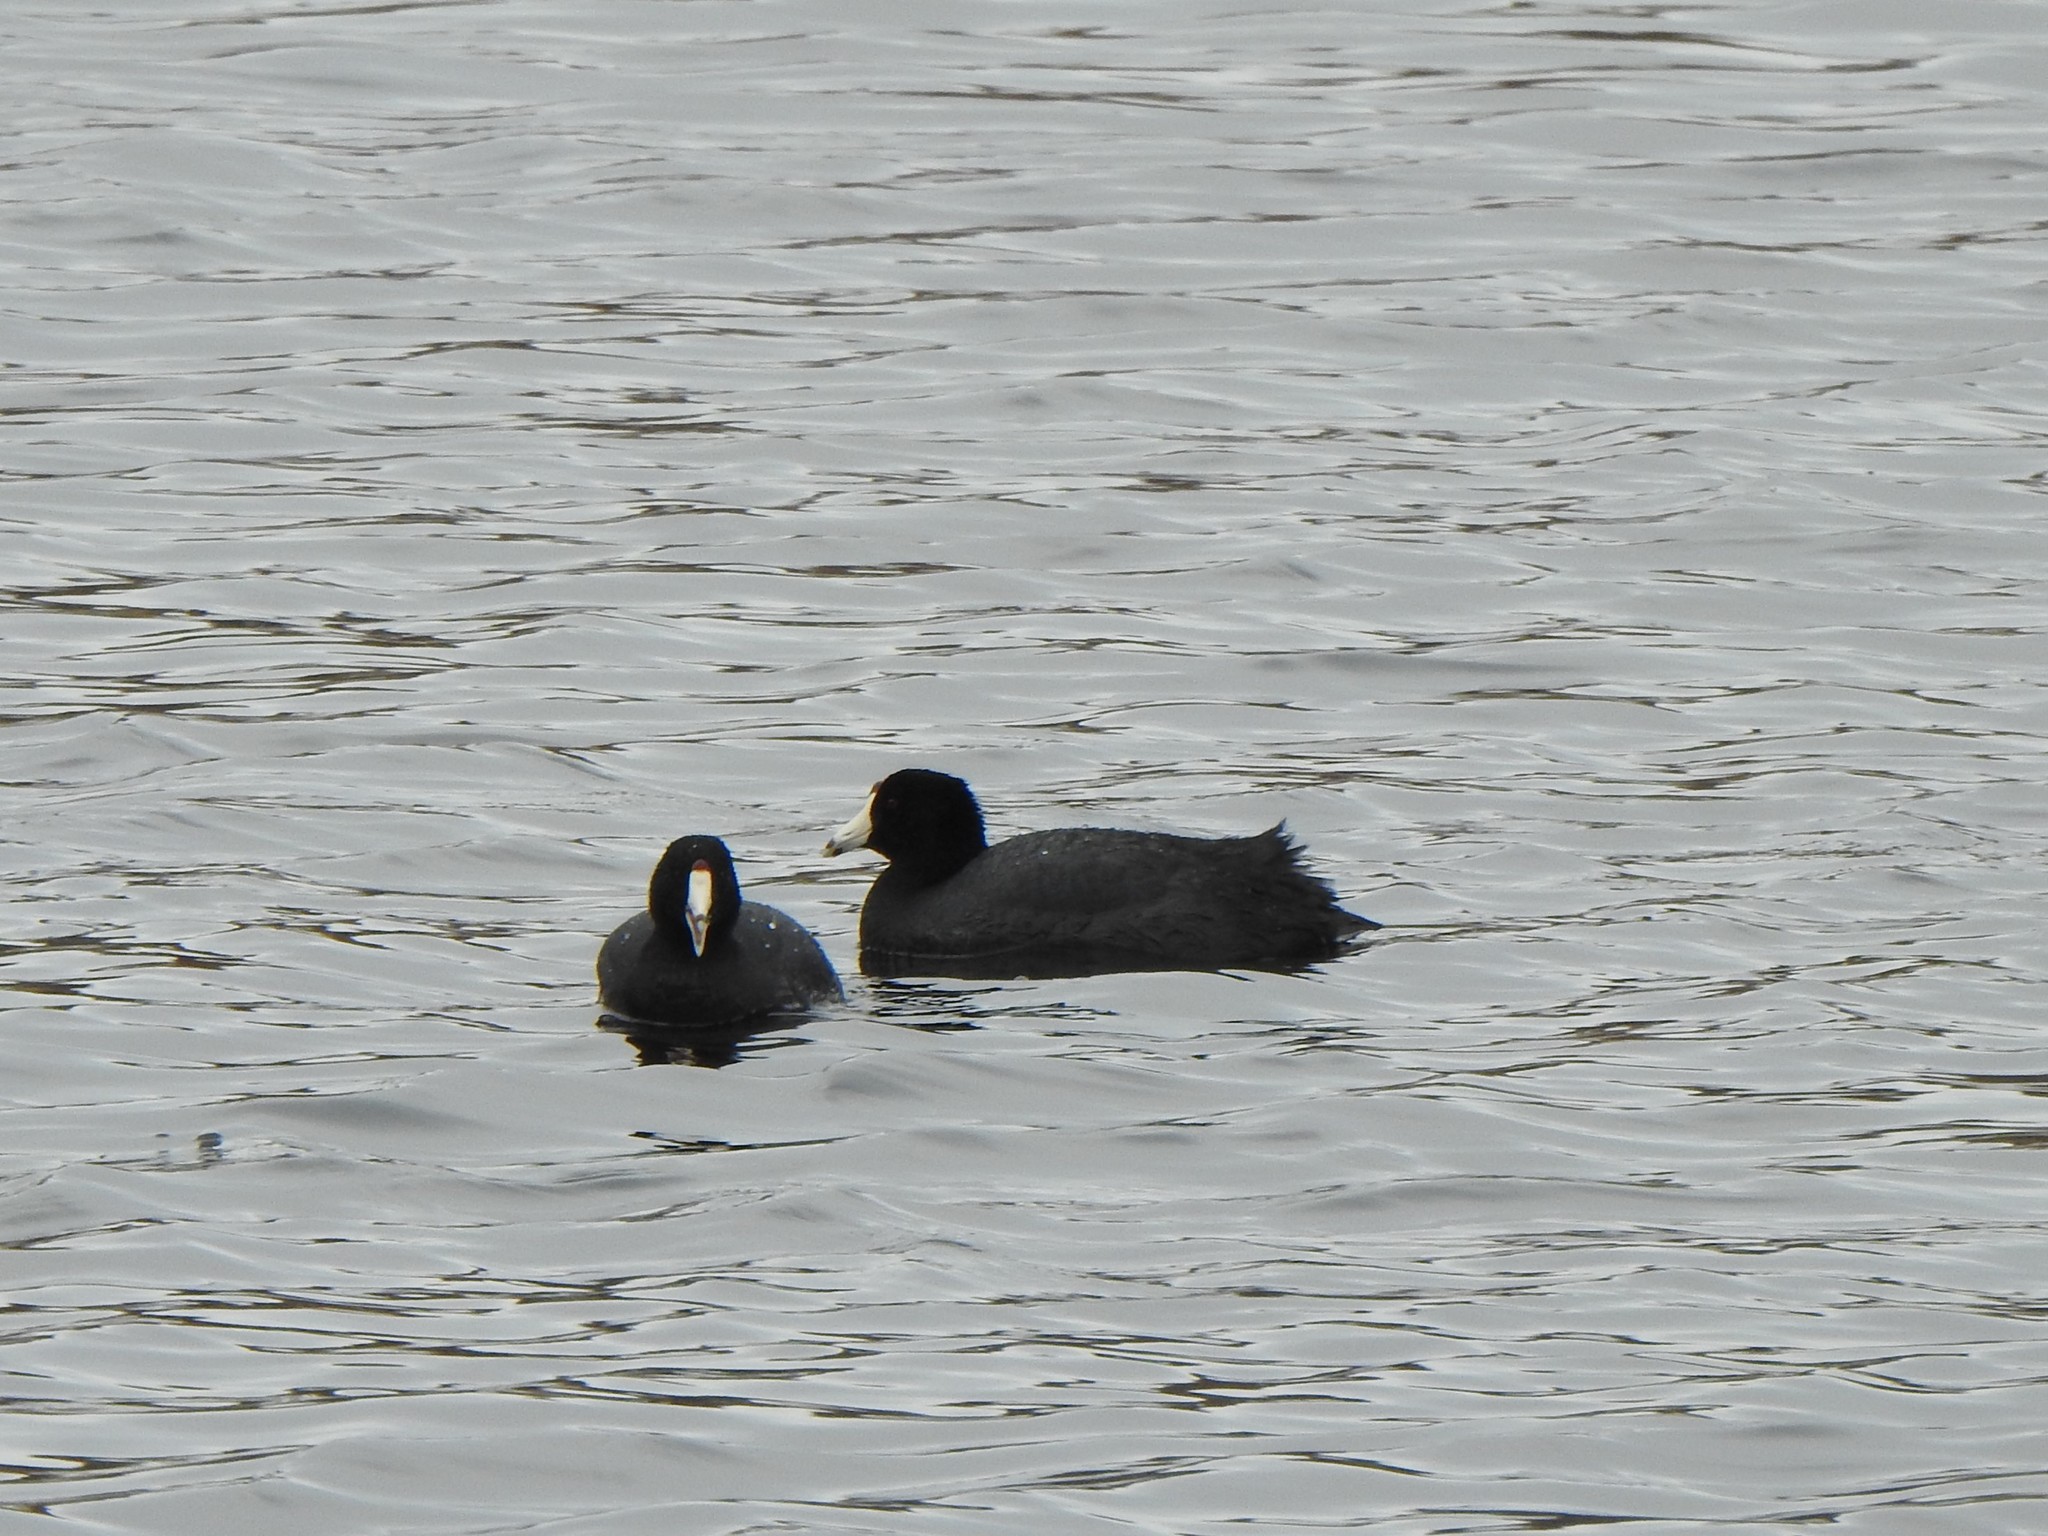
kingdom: Animalia
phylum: Chordata
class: Aves
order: Gruiformes
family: Rallidae
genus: Fulica
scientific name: Fulica americana
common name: American coot
